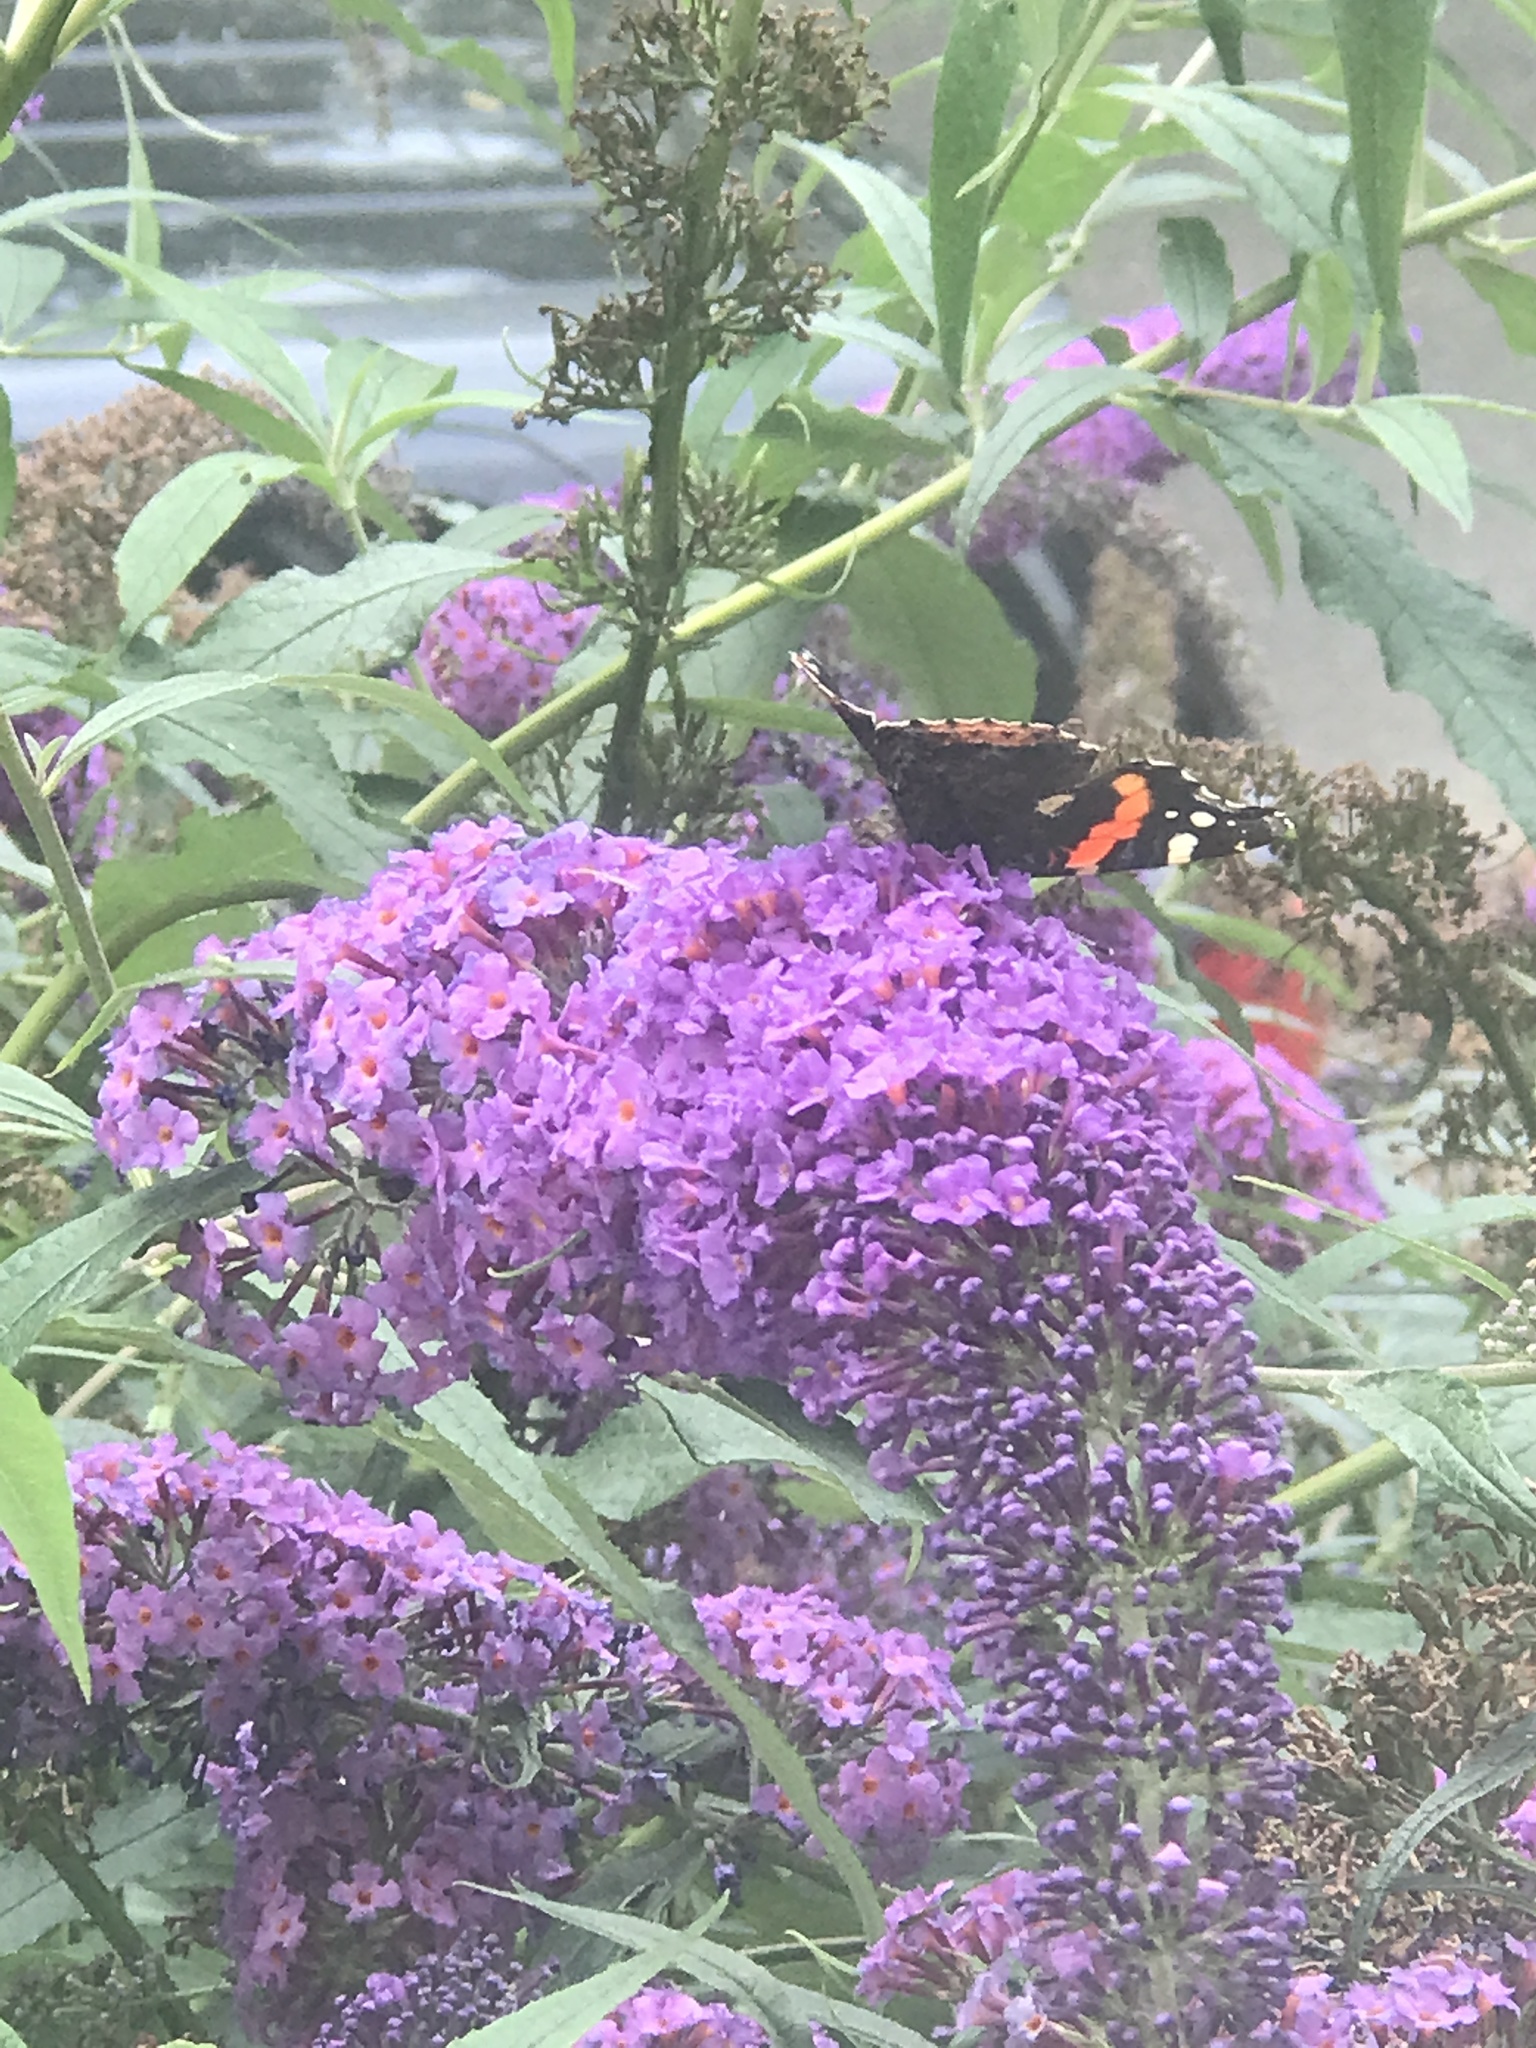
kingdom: Animalia
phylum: Arthropoda
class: Insecta
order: Lepidoptera
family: Nymphalidae
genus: Vanessa
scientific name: Vanessa atalanta
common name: Red admiral
